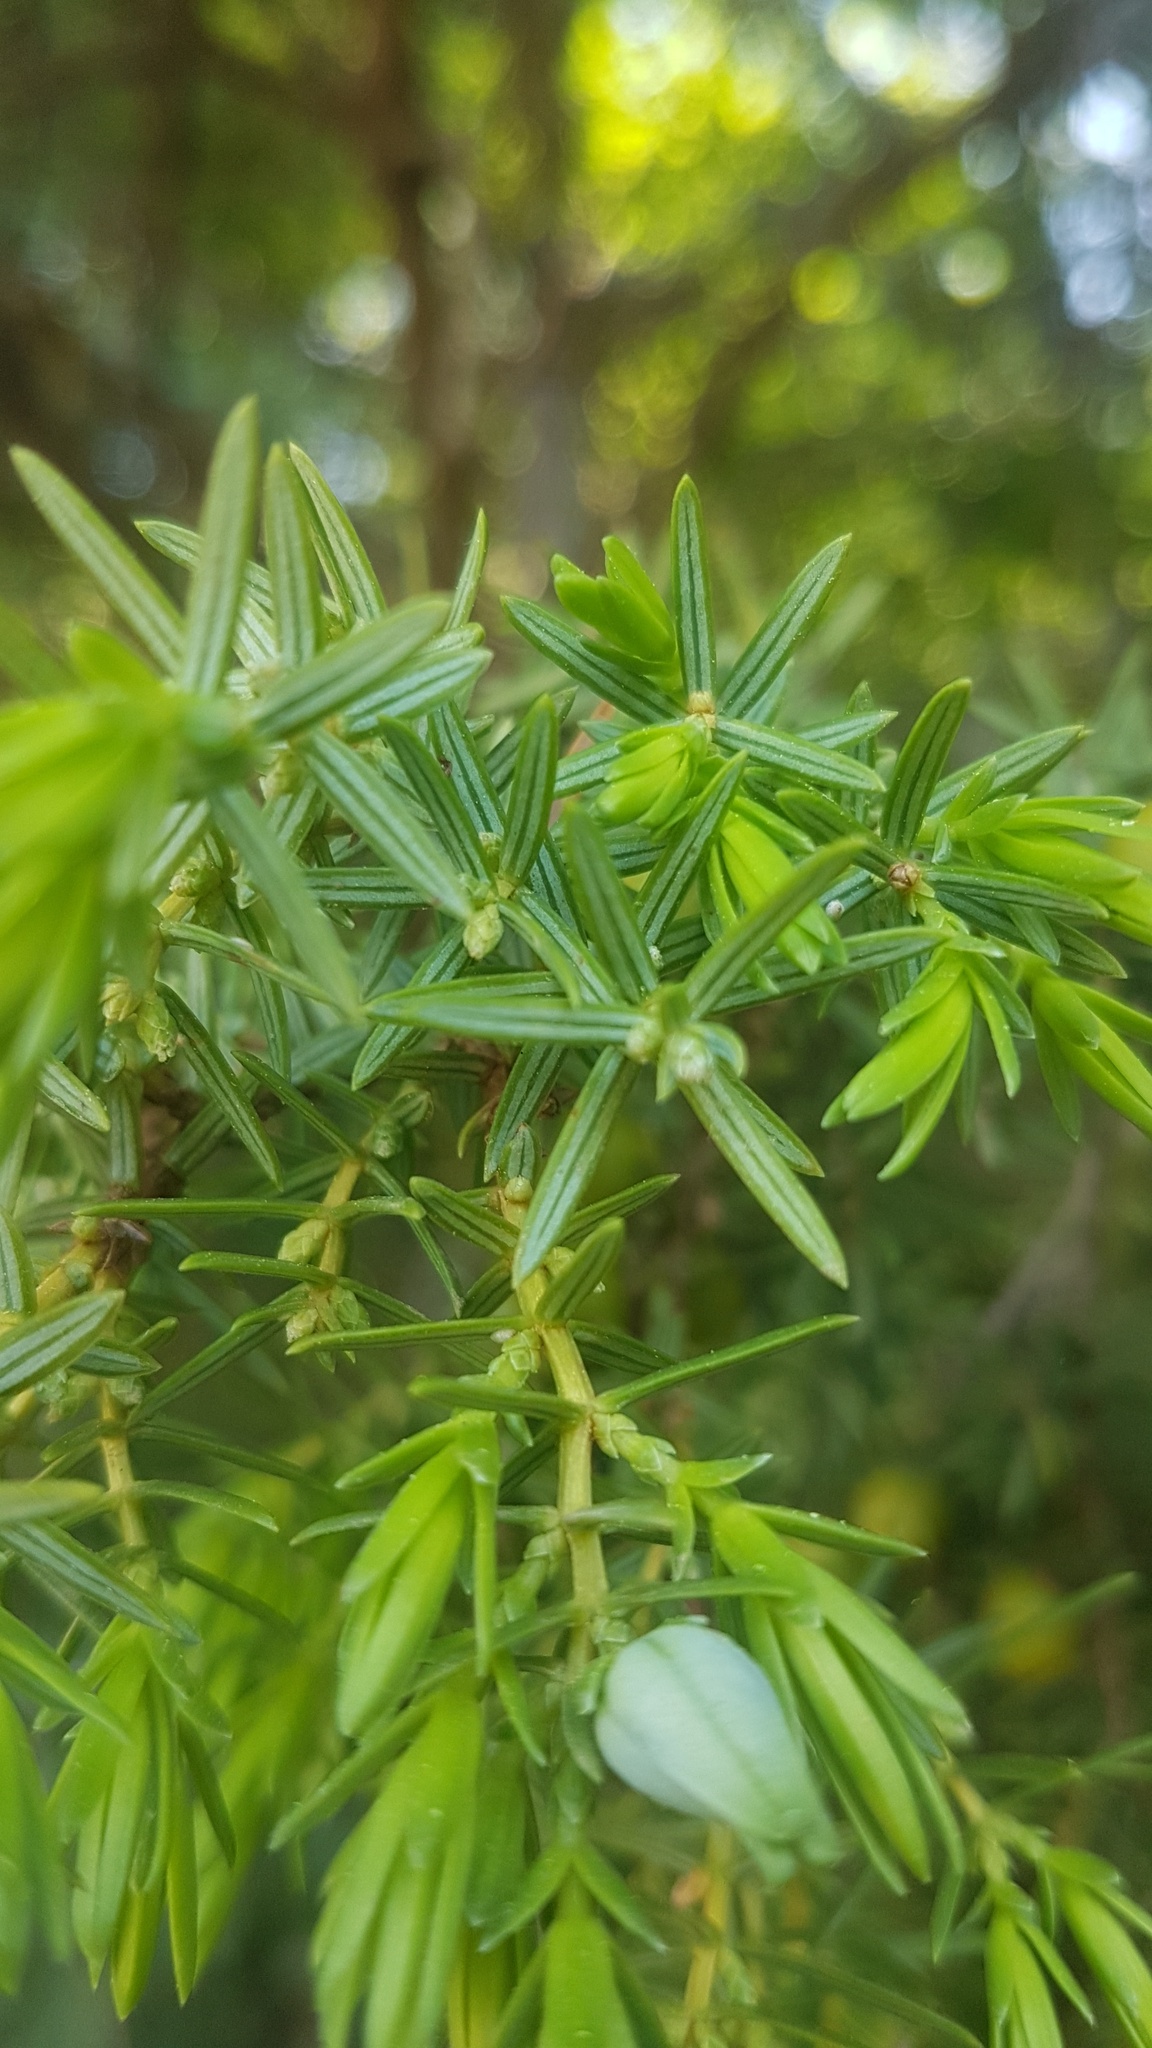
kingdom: Plantae
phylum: Tracheophyta
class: Pinopsida
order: Pinales
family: Cupressaceae
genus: Juniperus
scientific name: Juniperus oxycedrus
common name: Prickly juniper
